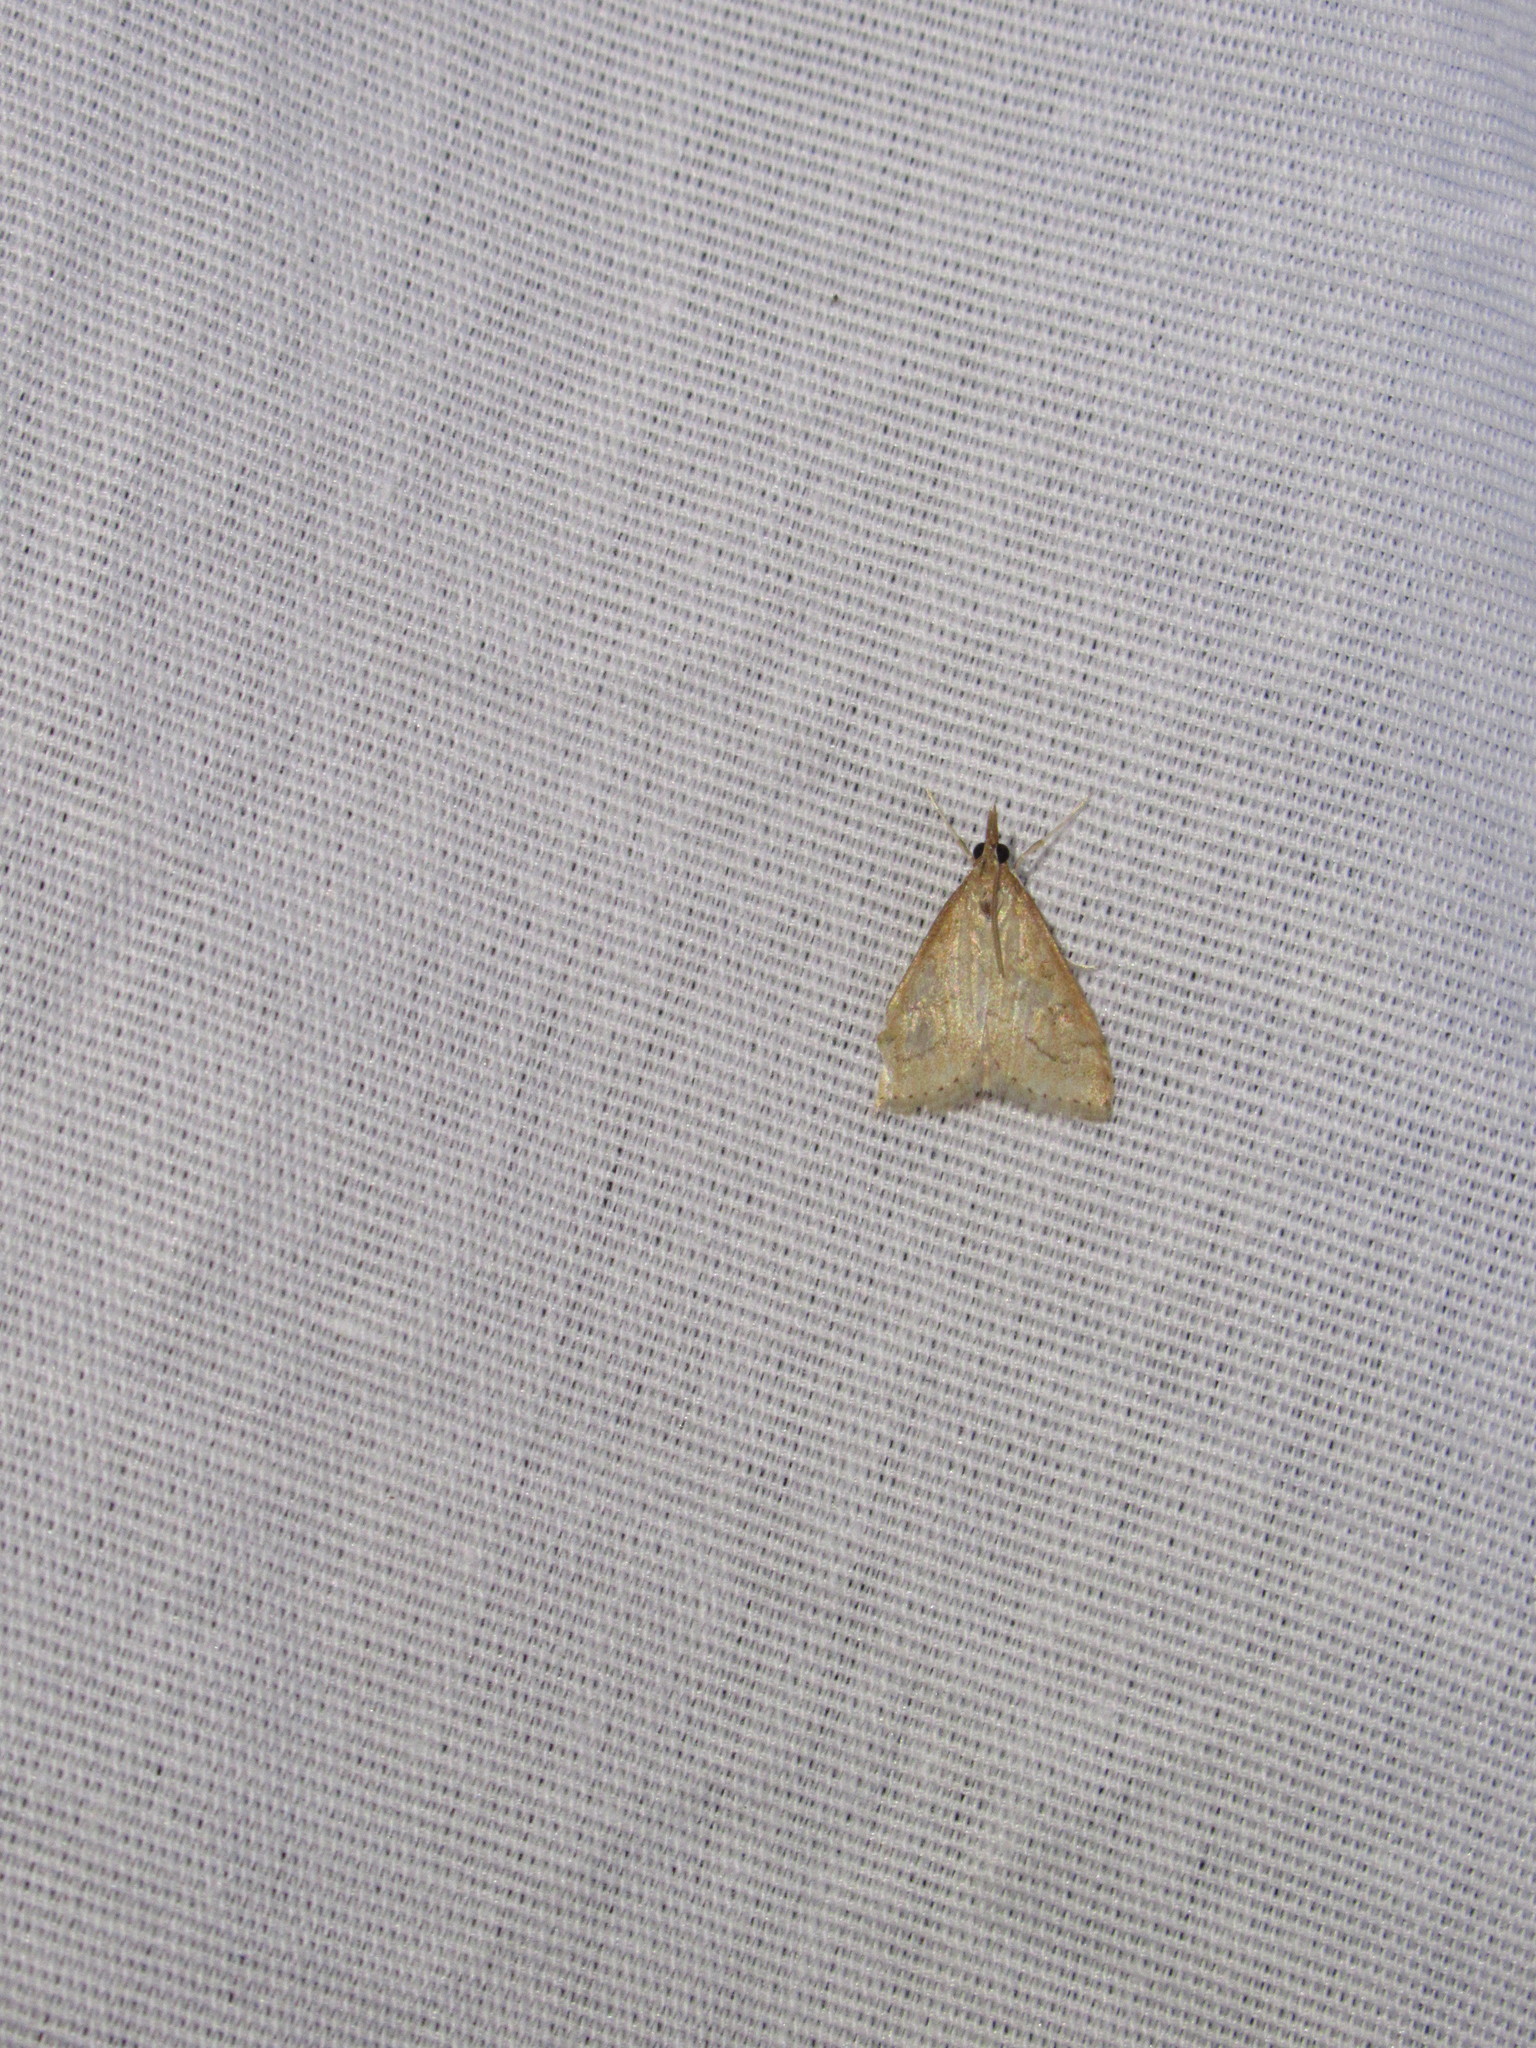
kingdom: Animalia
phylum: Arthropoda
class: Insecta
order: Lepidoptera
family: Crambidae
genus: Udea
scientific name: Udea rubigalis
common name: Celery leaftier moth
